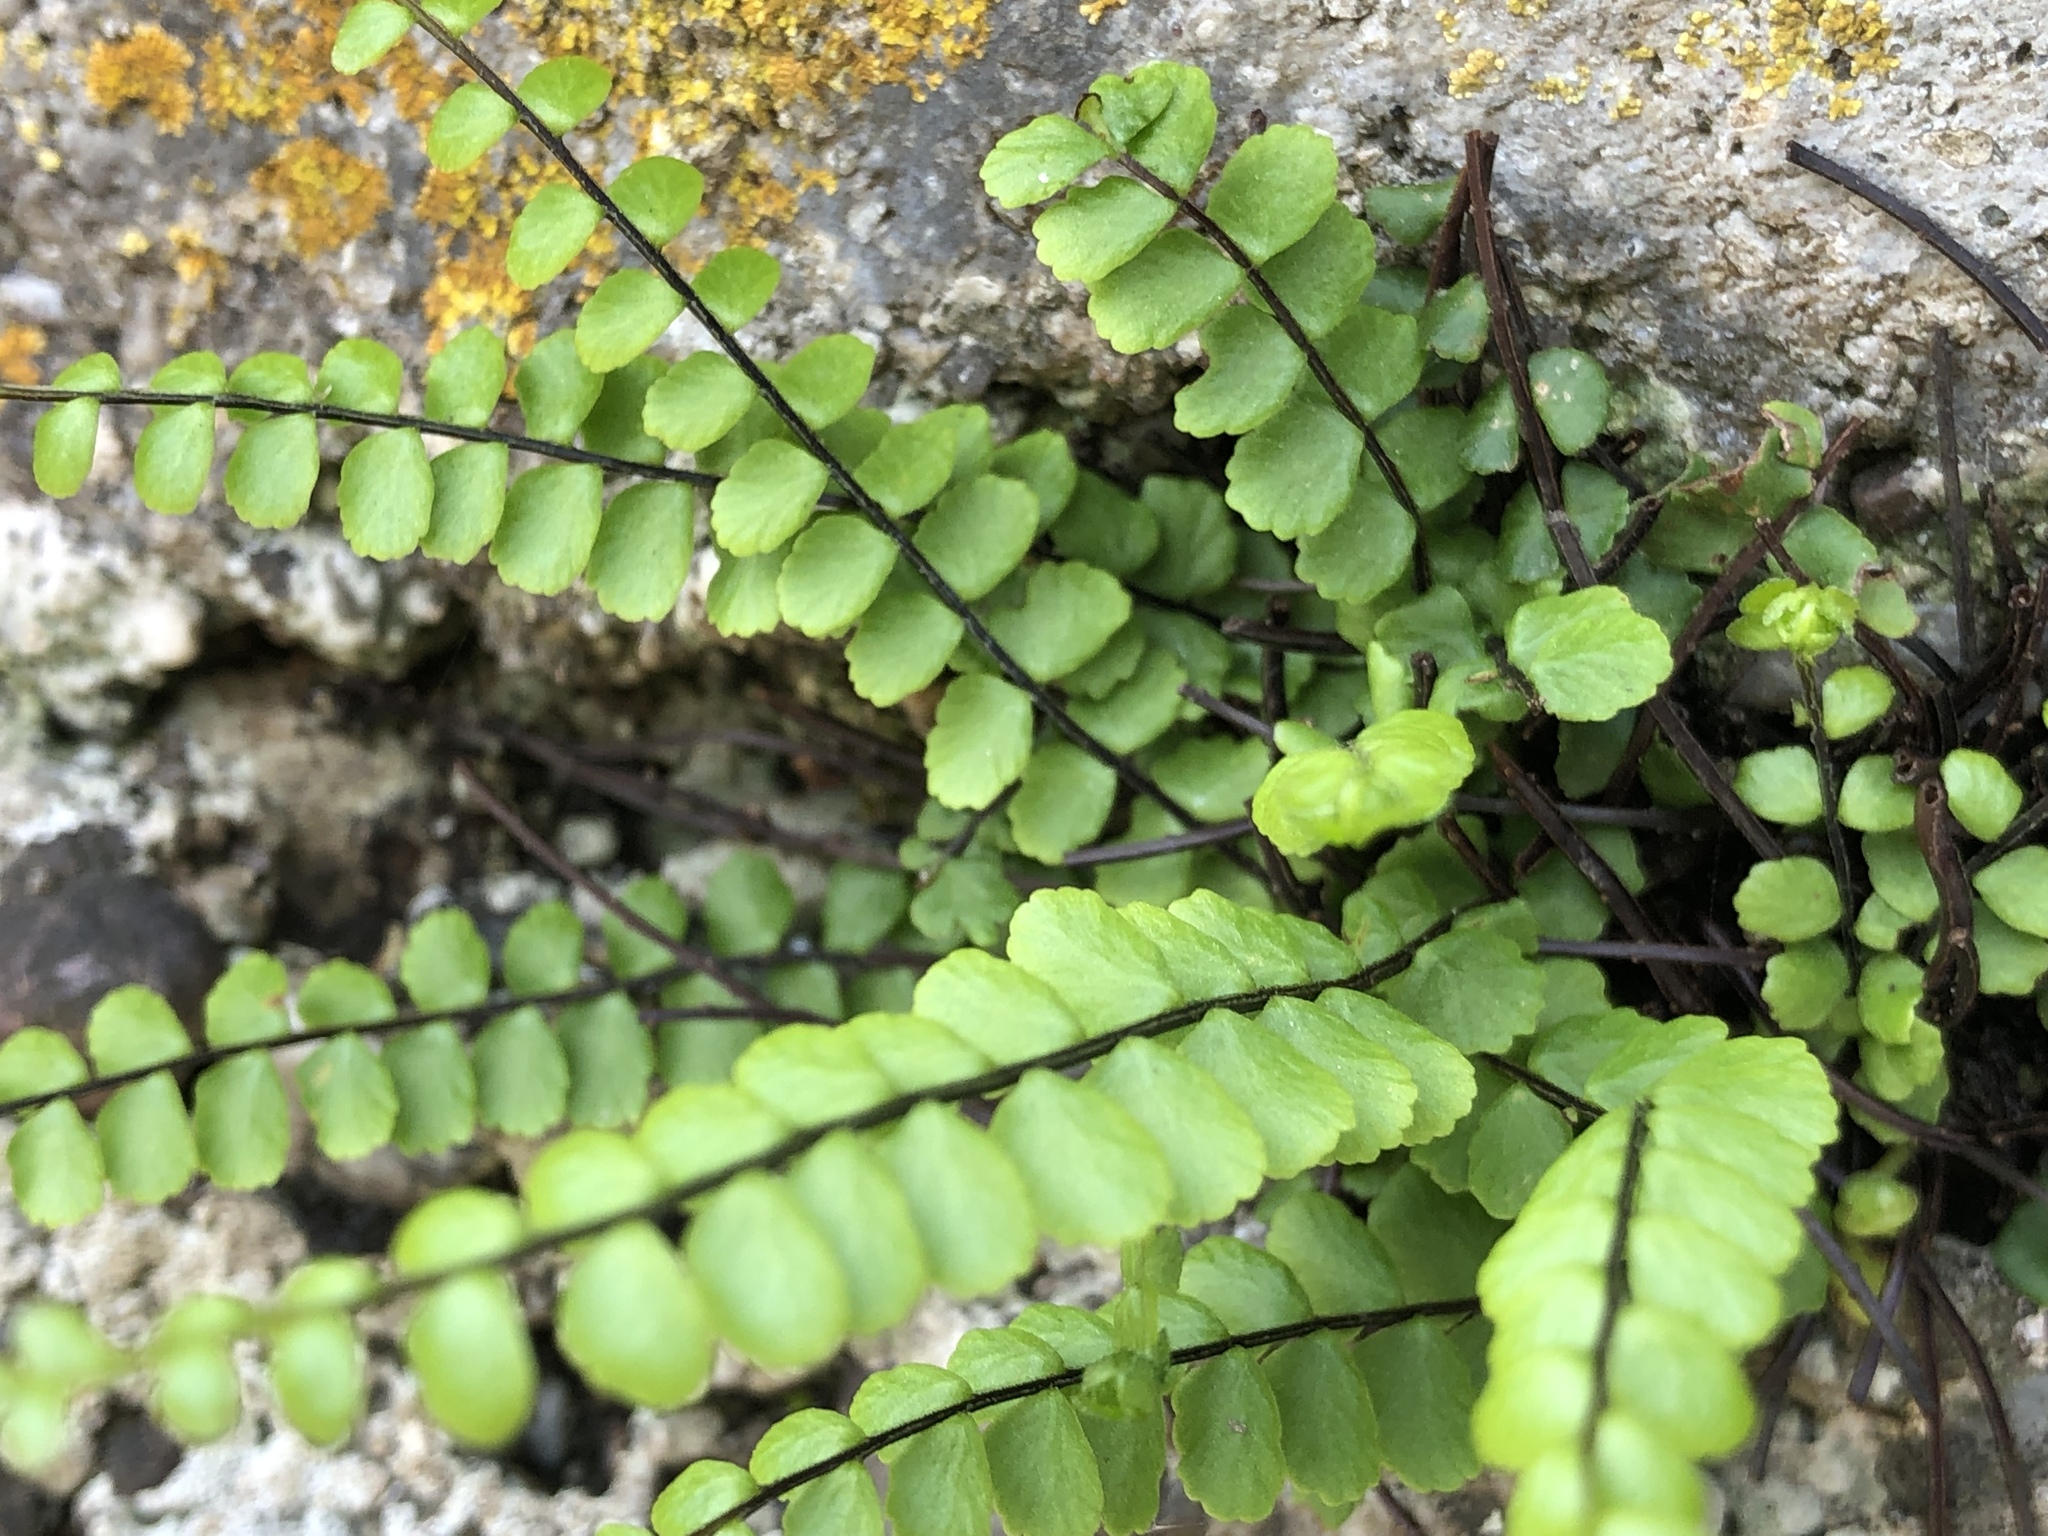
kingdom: Plantae
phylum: Tracheophyta
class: Polypodiopsida
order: Polypodiales
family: Aspleniaceae
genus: Asplenium
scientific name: Asplenium trichomanes
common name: Maidenhair spleenwort
